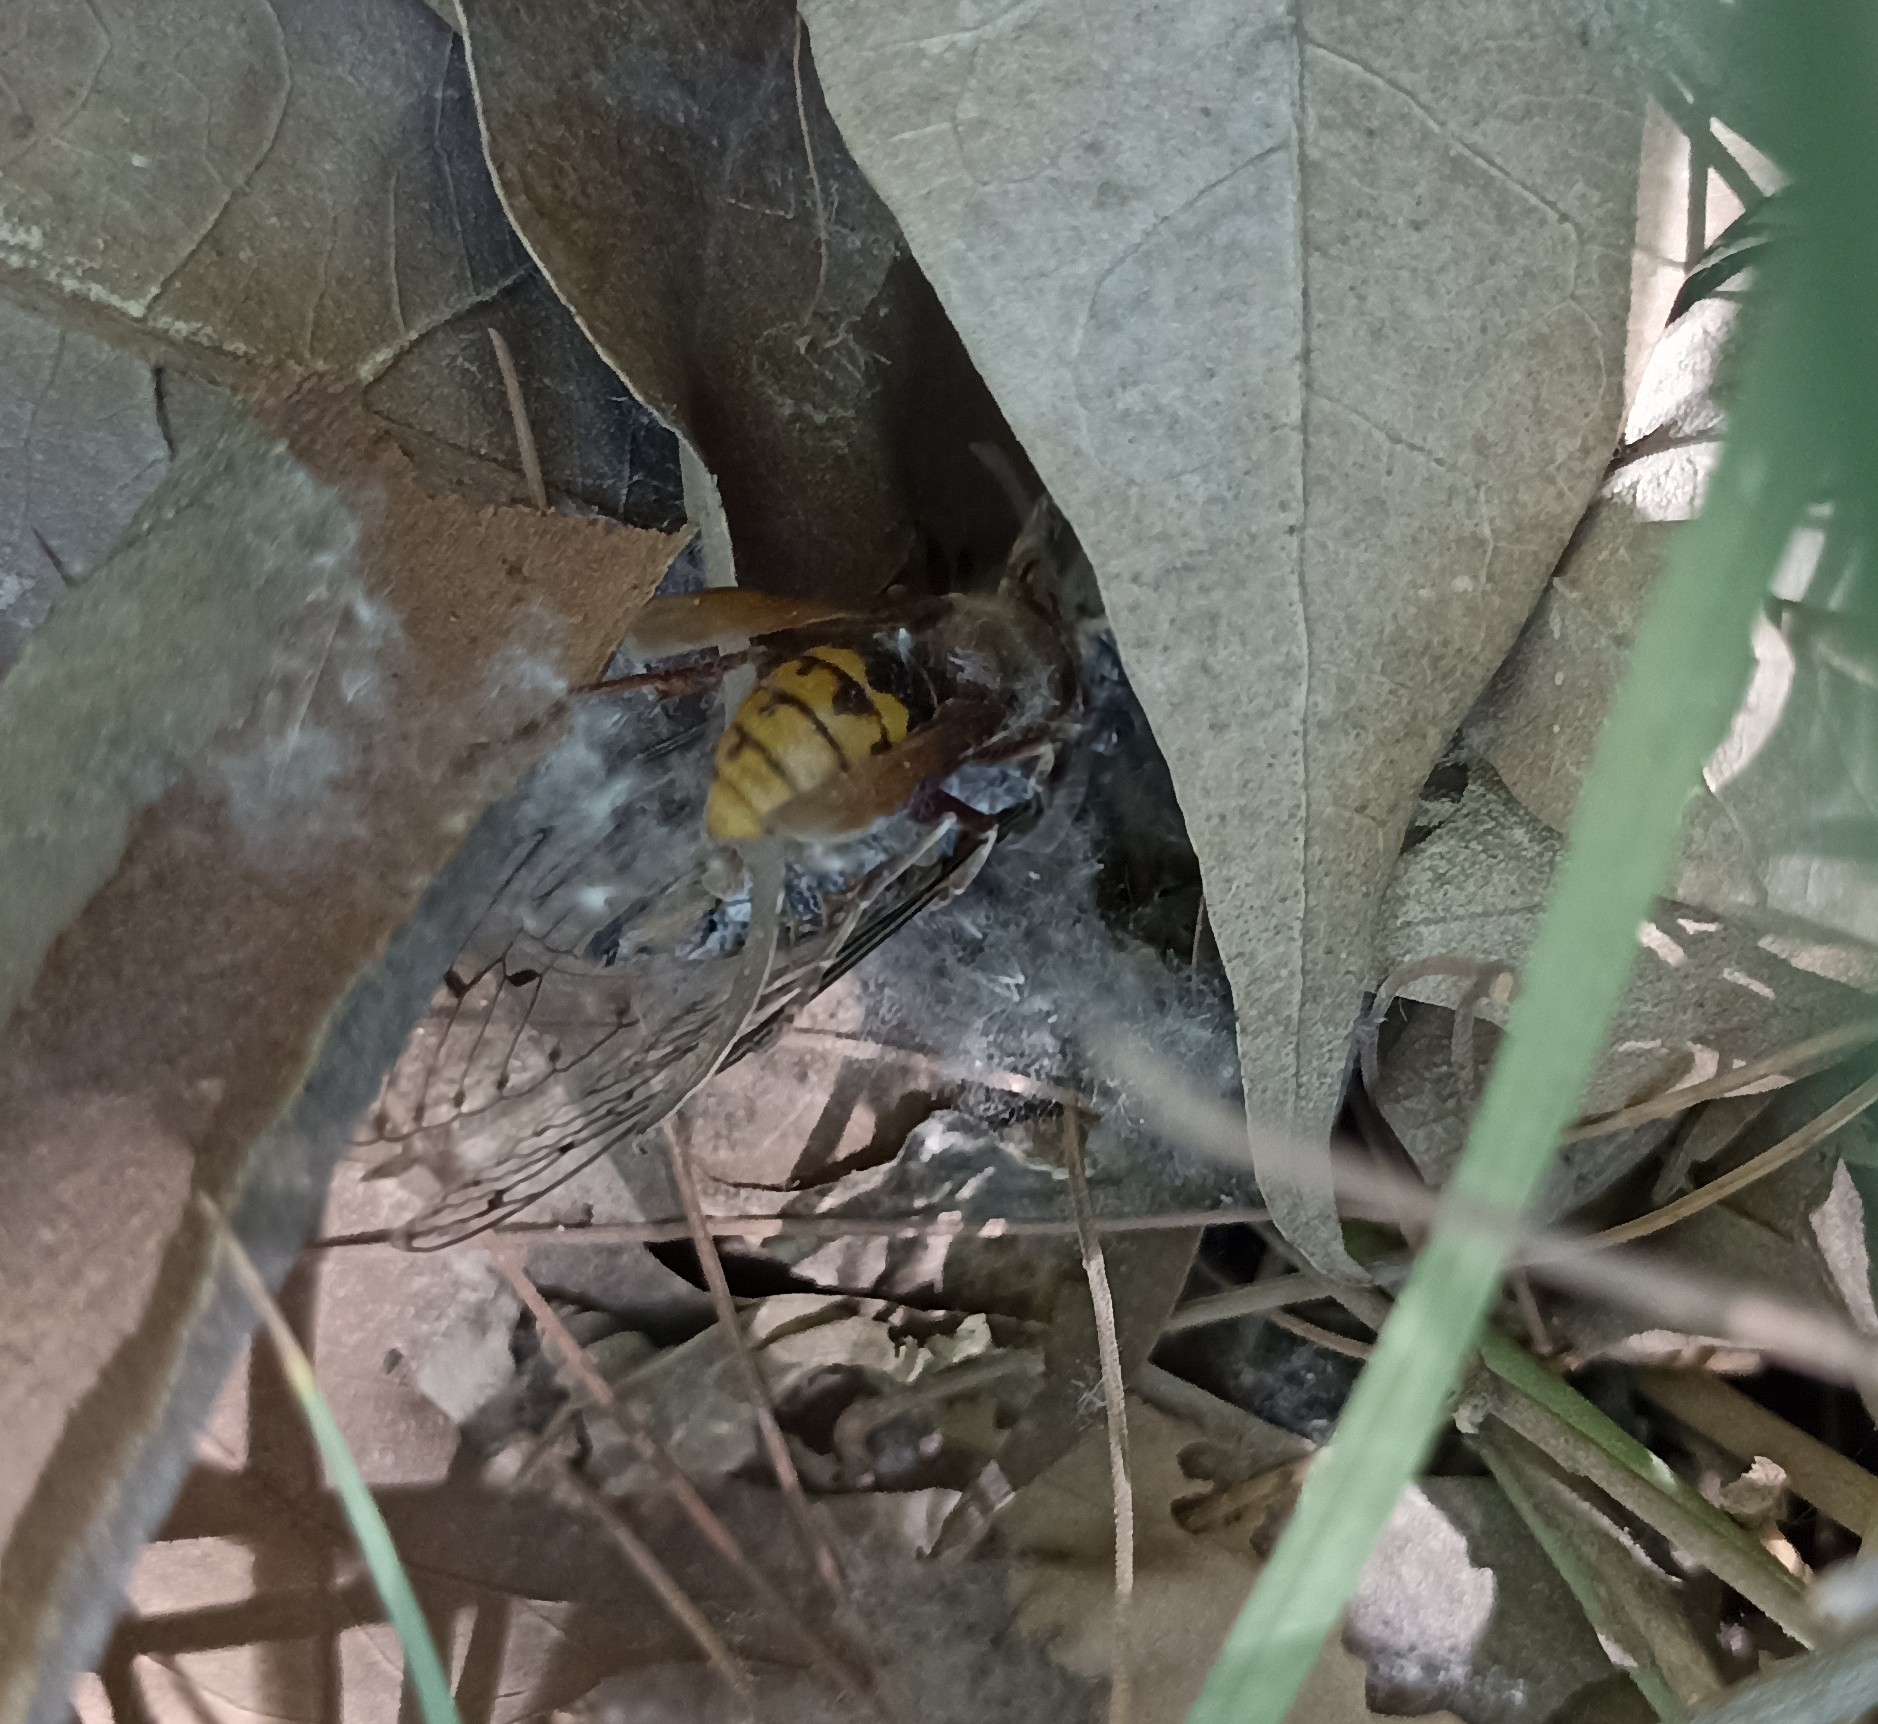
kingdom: Animalia
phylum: Arthropoda
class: Insecta
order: Hymenoptera
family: Vespidae
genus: Vespa
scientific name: Vespa crabro
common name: Hornet
